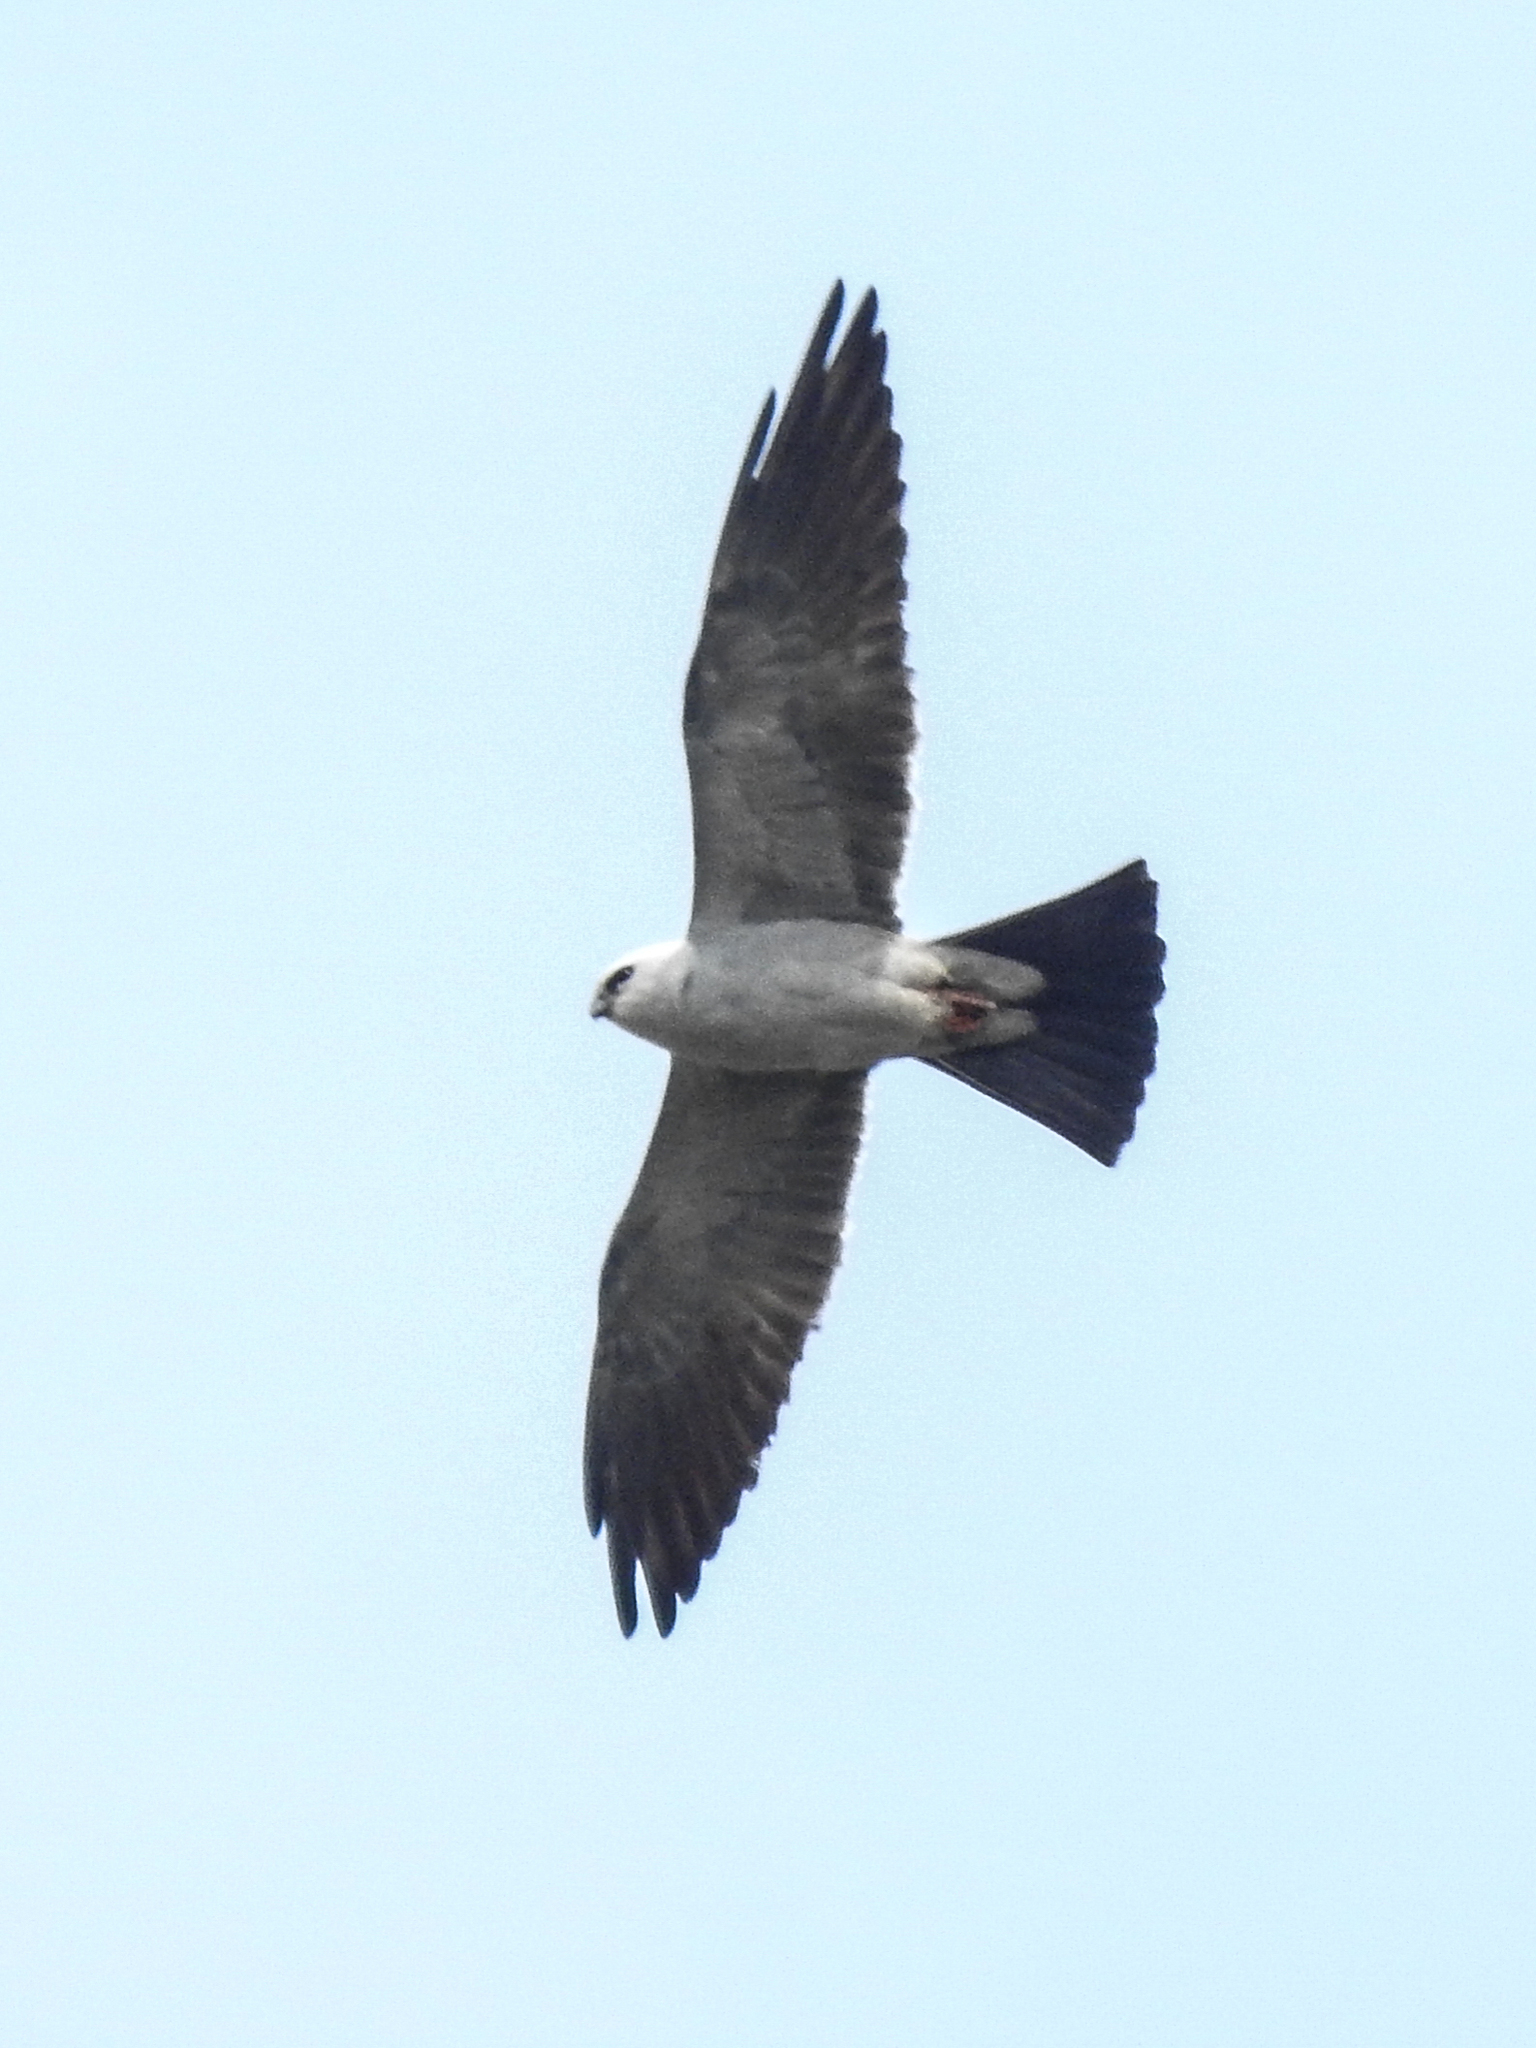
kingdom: Animalia
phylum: Chordata
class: Aves
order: Accipitriformes
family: Accipitridae
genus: Ictinia
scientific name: Ictinia mississippiensis
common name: Mississippi kite
